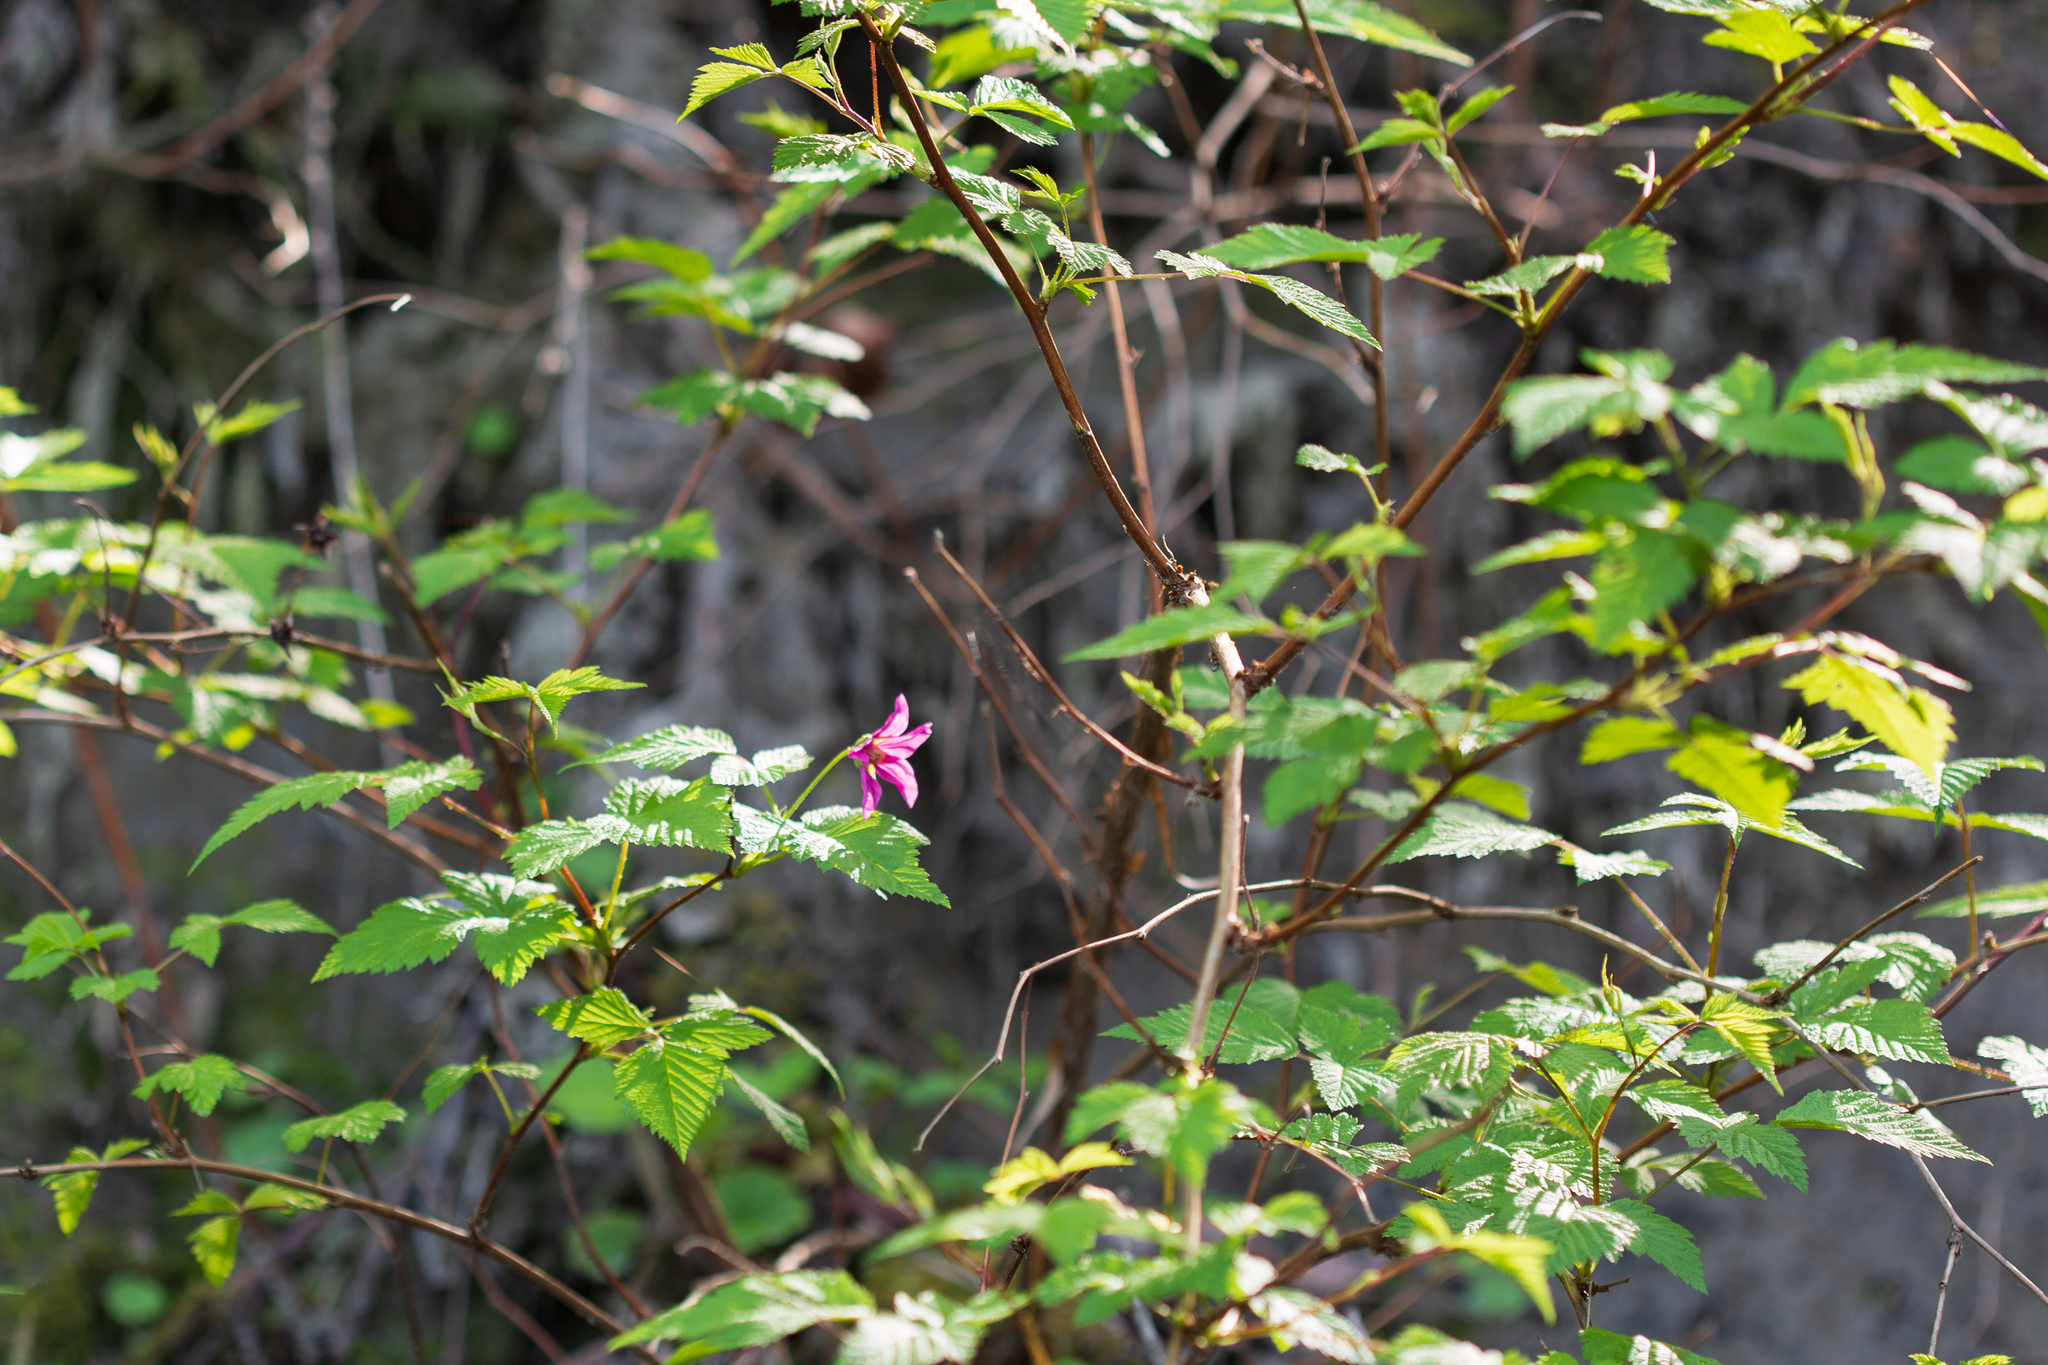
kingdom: Plantae
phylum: Tracheophyta
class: Magnoliopsida
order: Rosales
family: Rosaceae
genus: Rubus
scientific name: Rubus spectabilis
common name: Salmonberry
